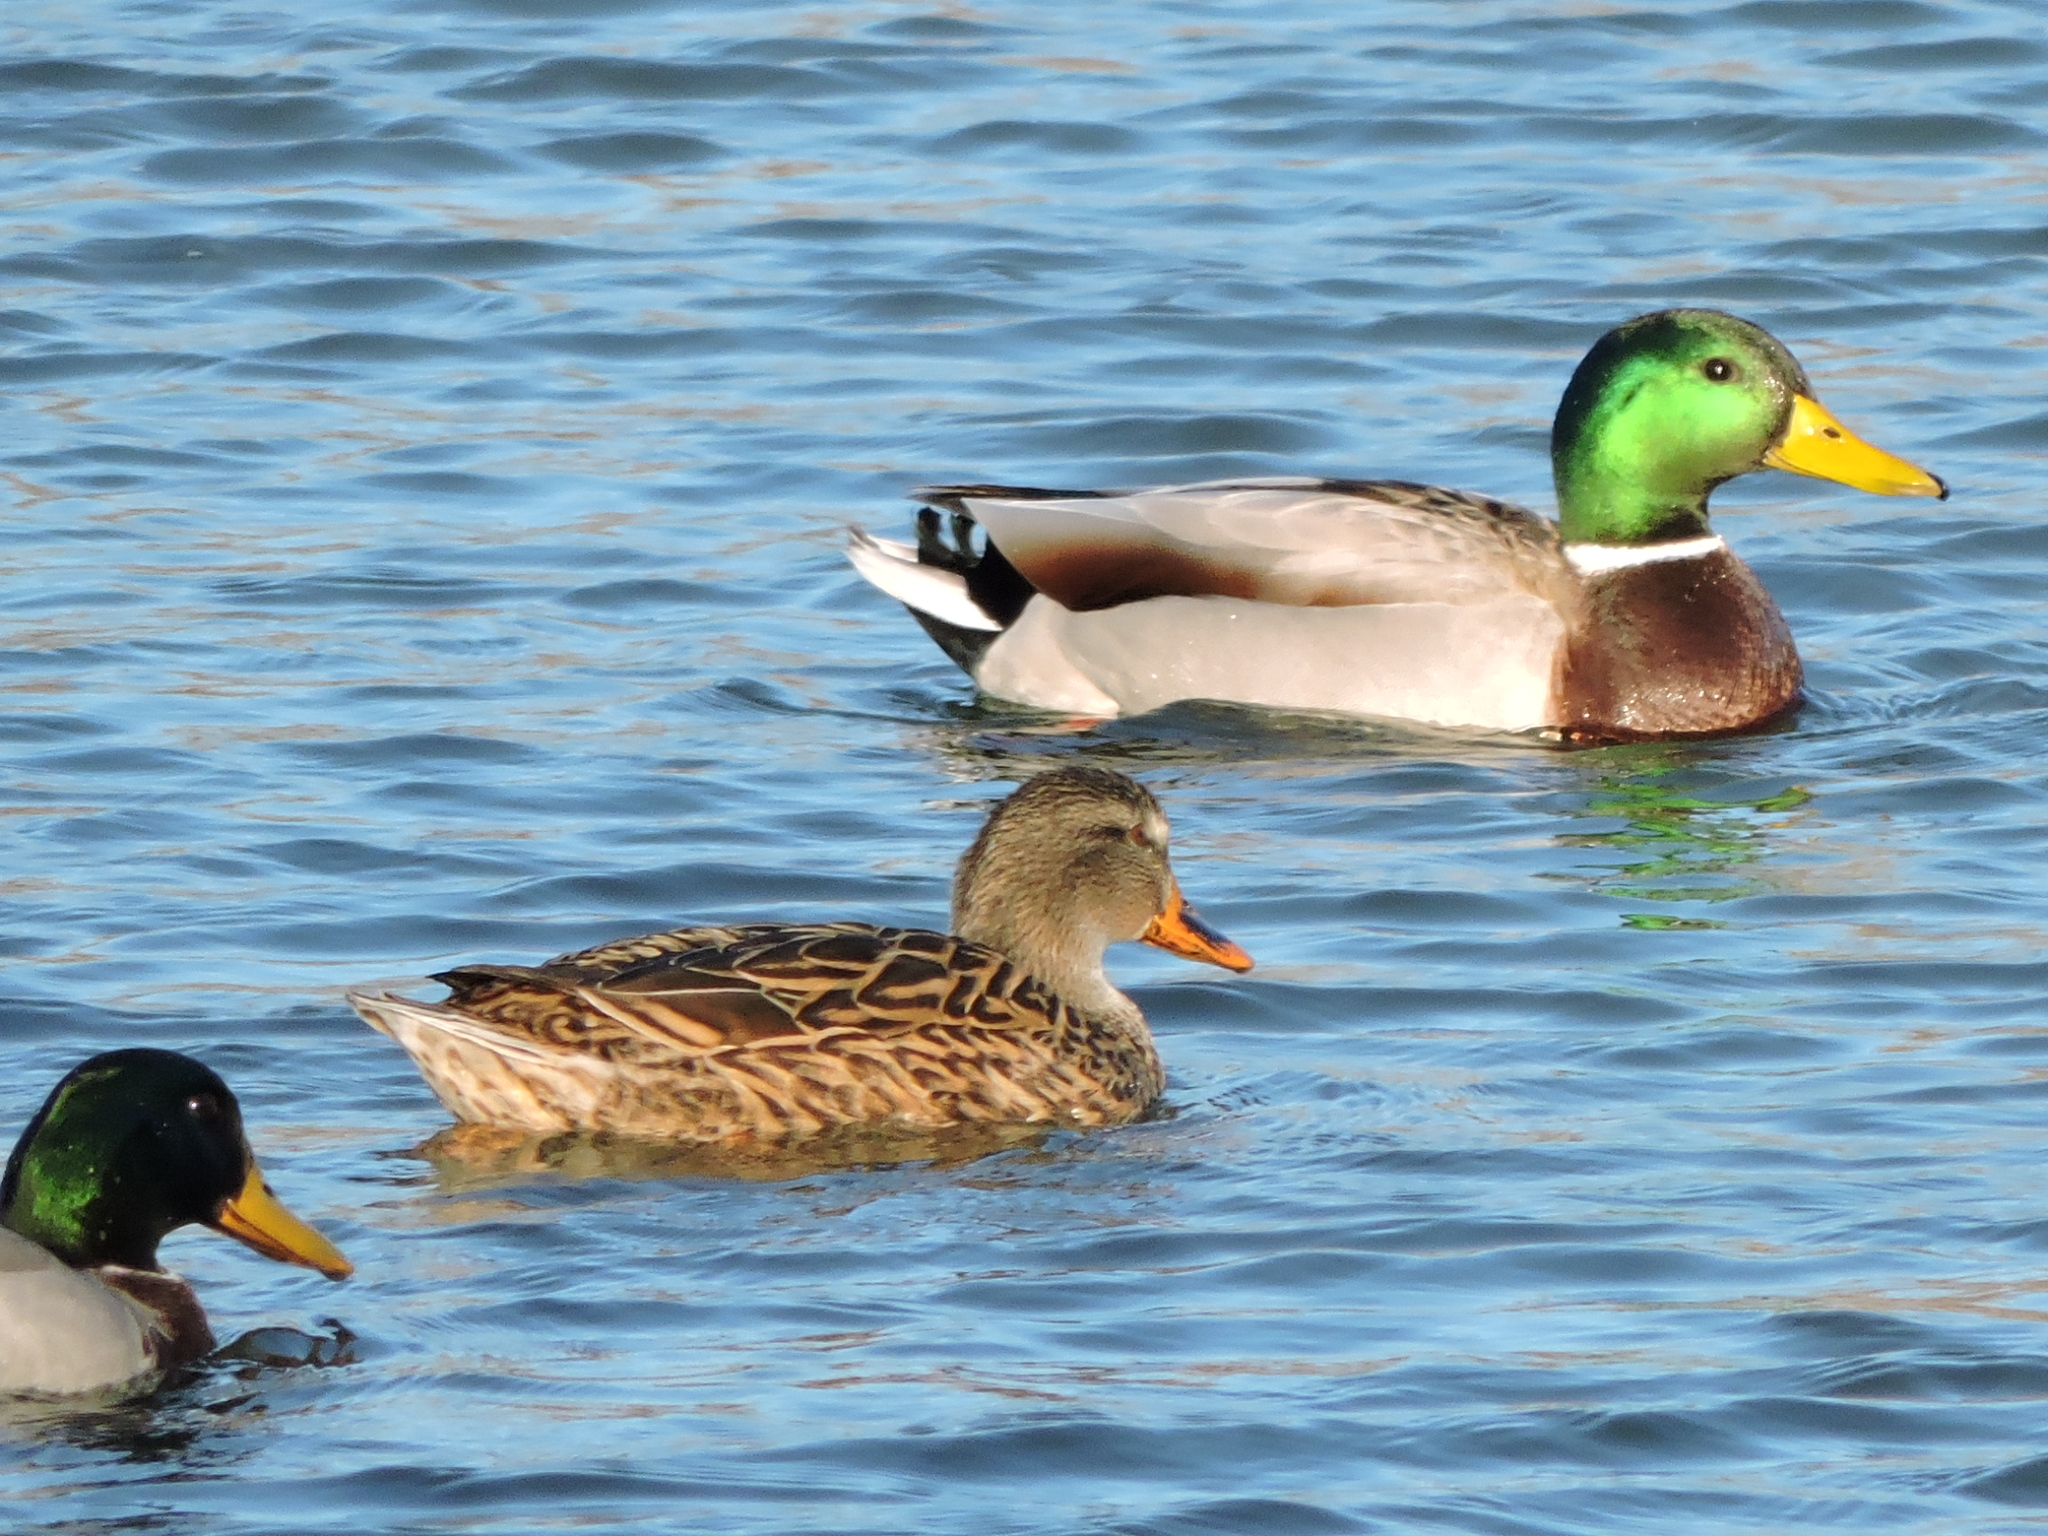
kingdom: Animalia
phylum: Chordata
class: Aves
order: Anseriformes
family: Anatidae
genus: Anas
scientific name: Anas platyrhynchos
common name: Mallard
